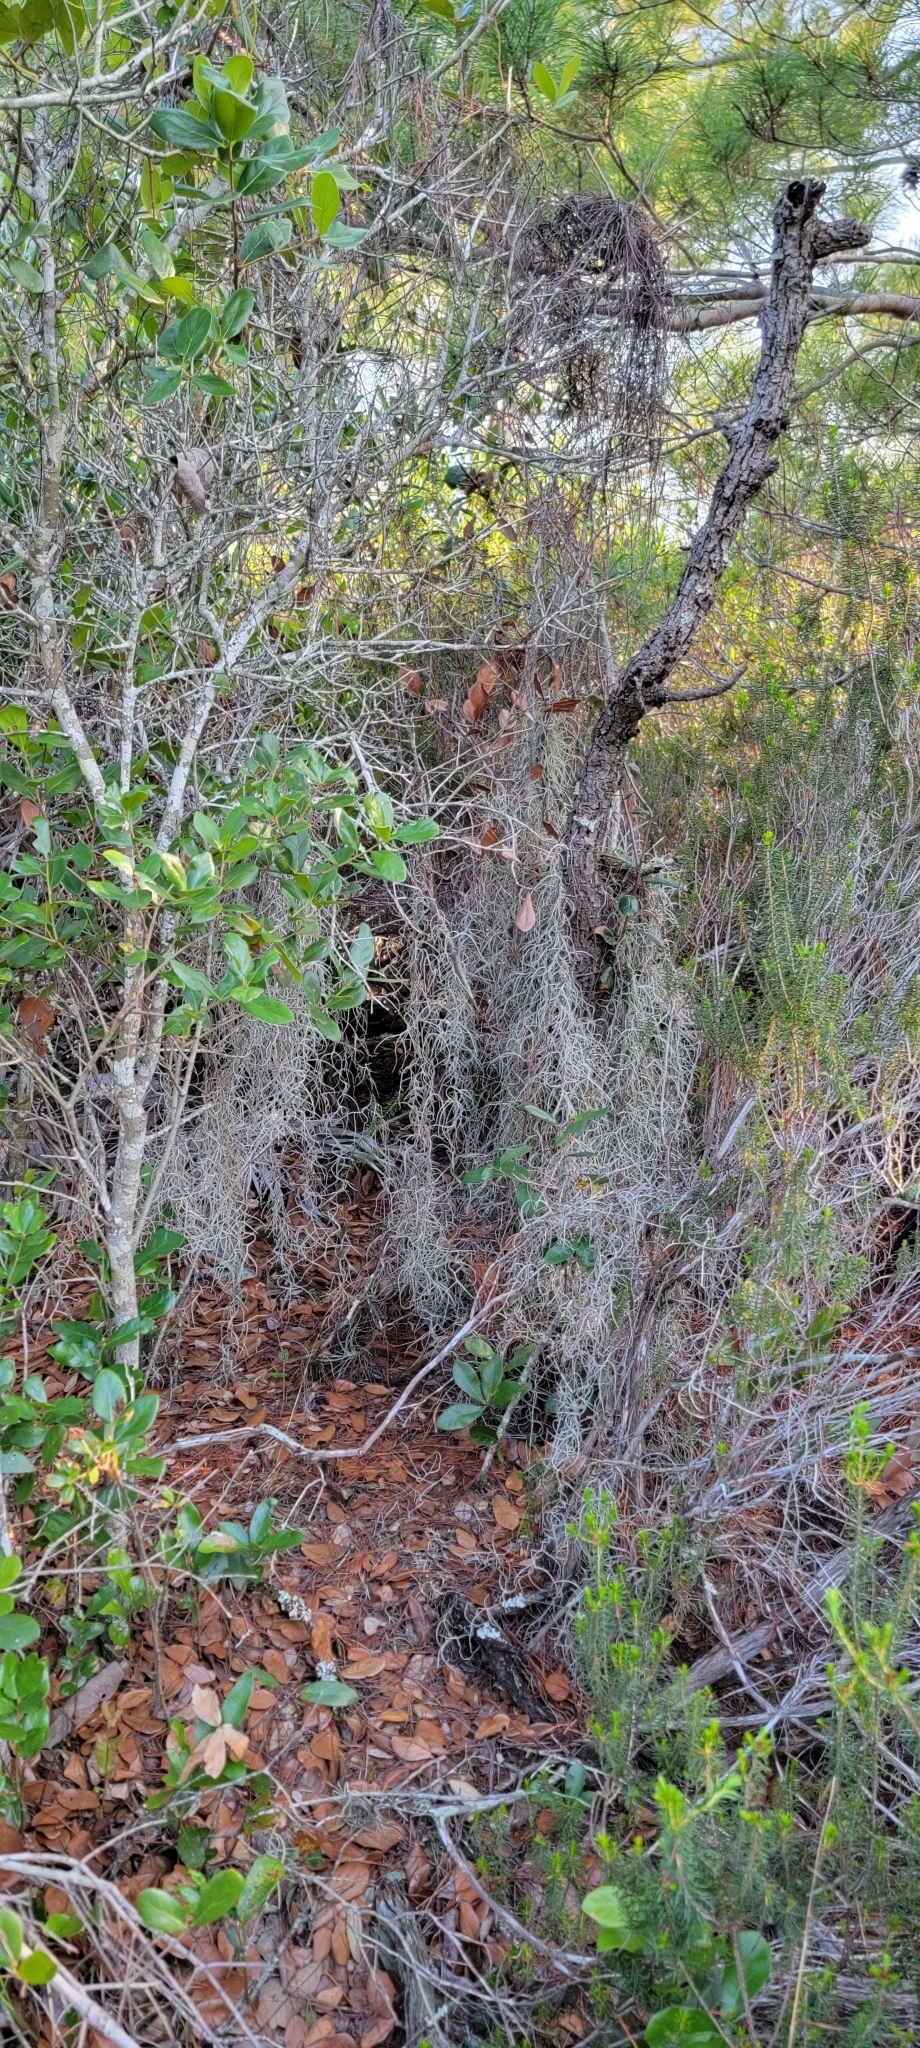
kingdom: Plantae
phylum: Tracheophyta
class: Liliopsida
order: Poales
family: Bromeliaceae
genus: Tillandsia
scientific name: Tillandsia usneoides
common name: Spanish moss
